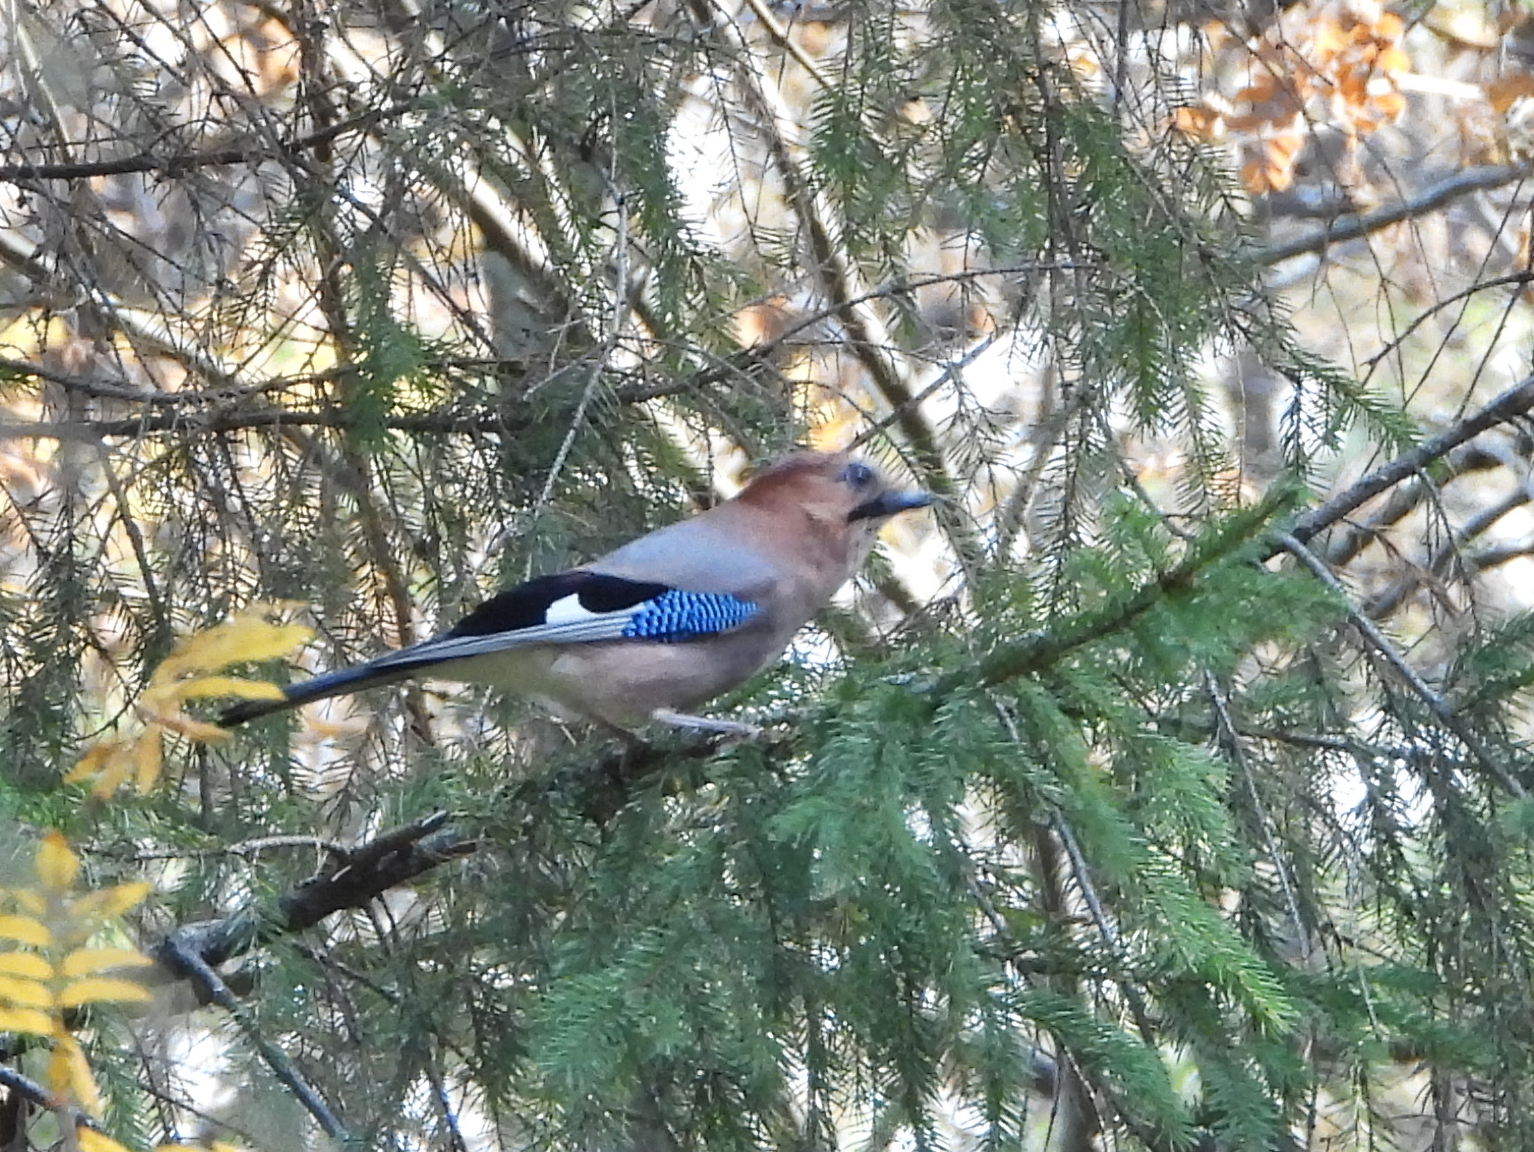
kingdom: Animalia
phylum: Chordata
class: Aves
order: Passeriformes
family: Corvidae
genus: Garrulus
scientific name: Garrulus glandarius
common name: Eurasian jay
